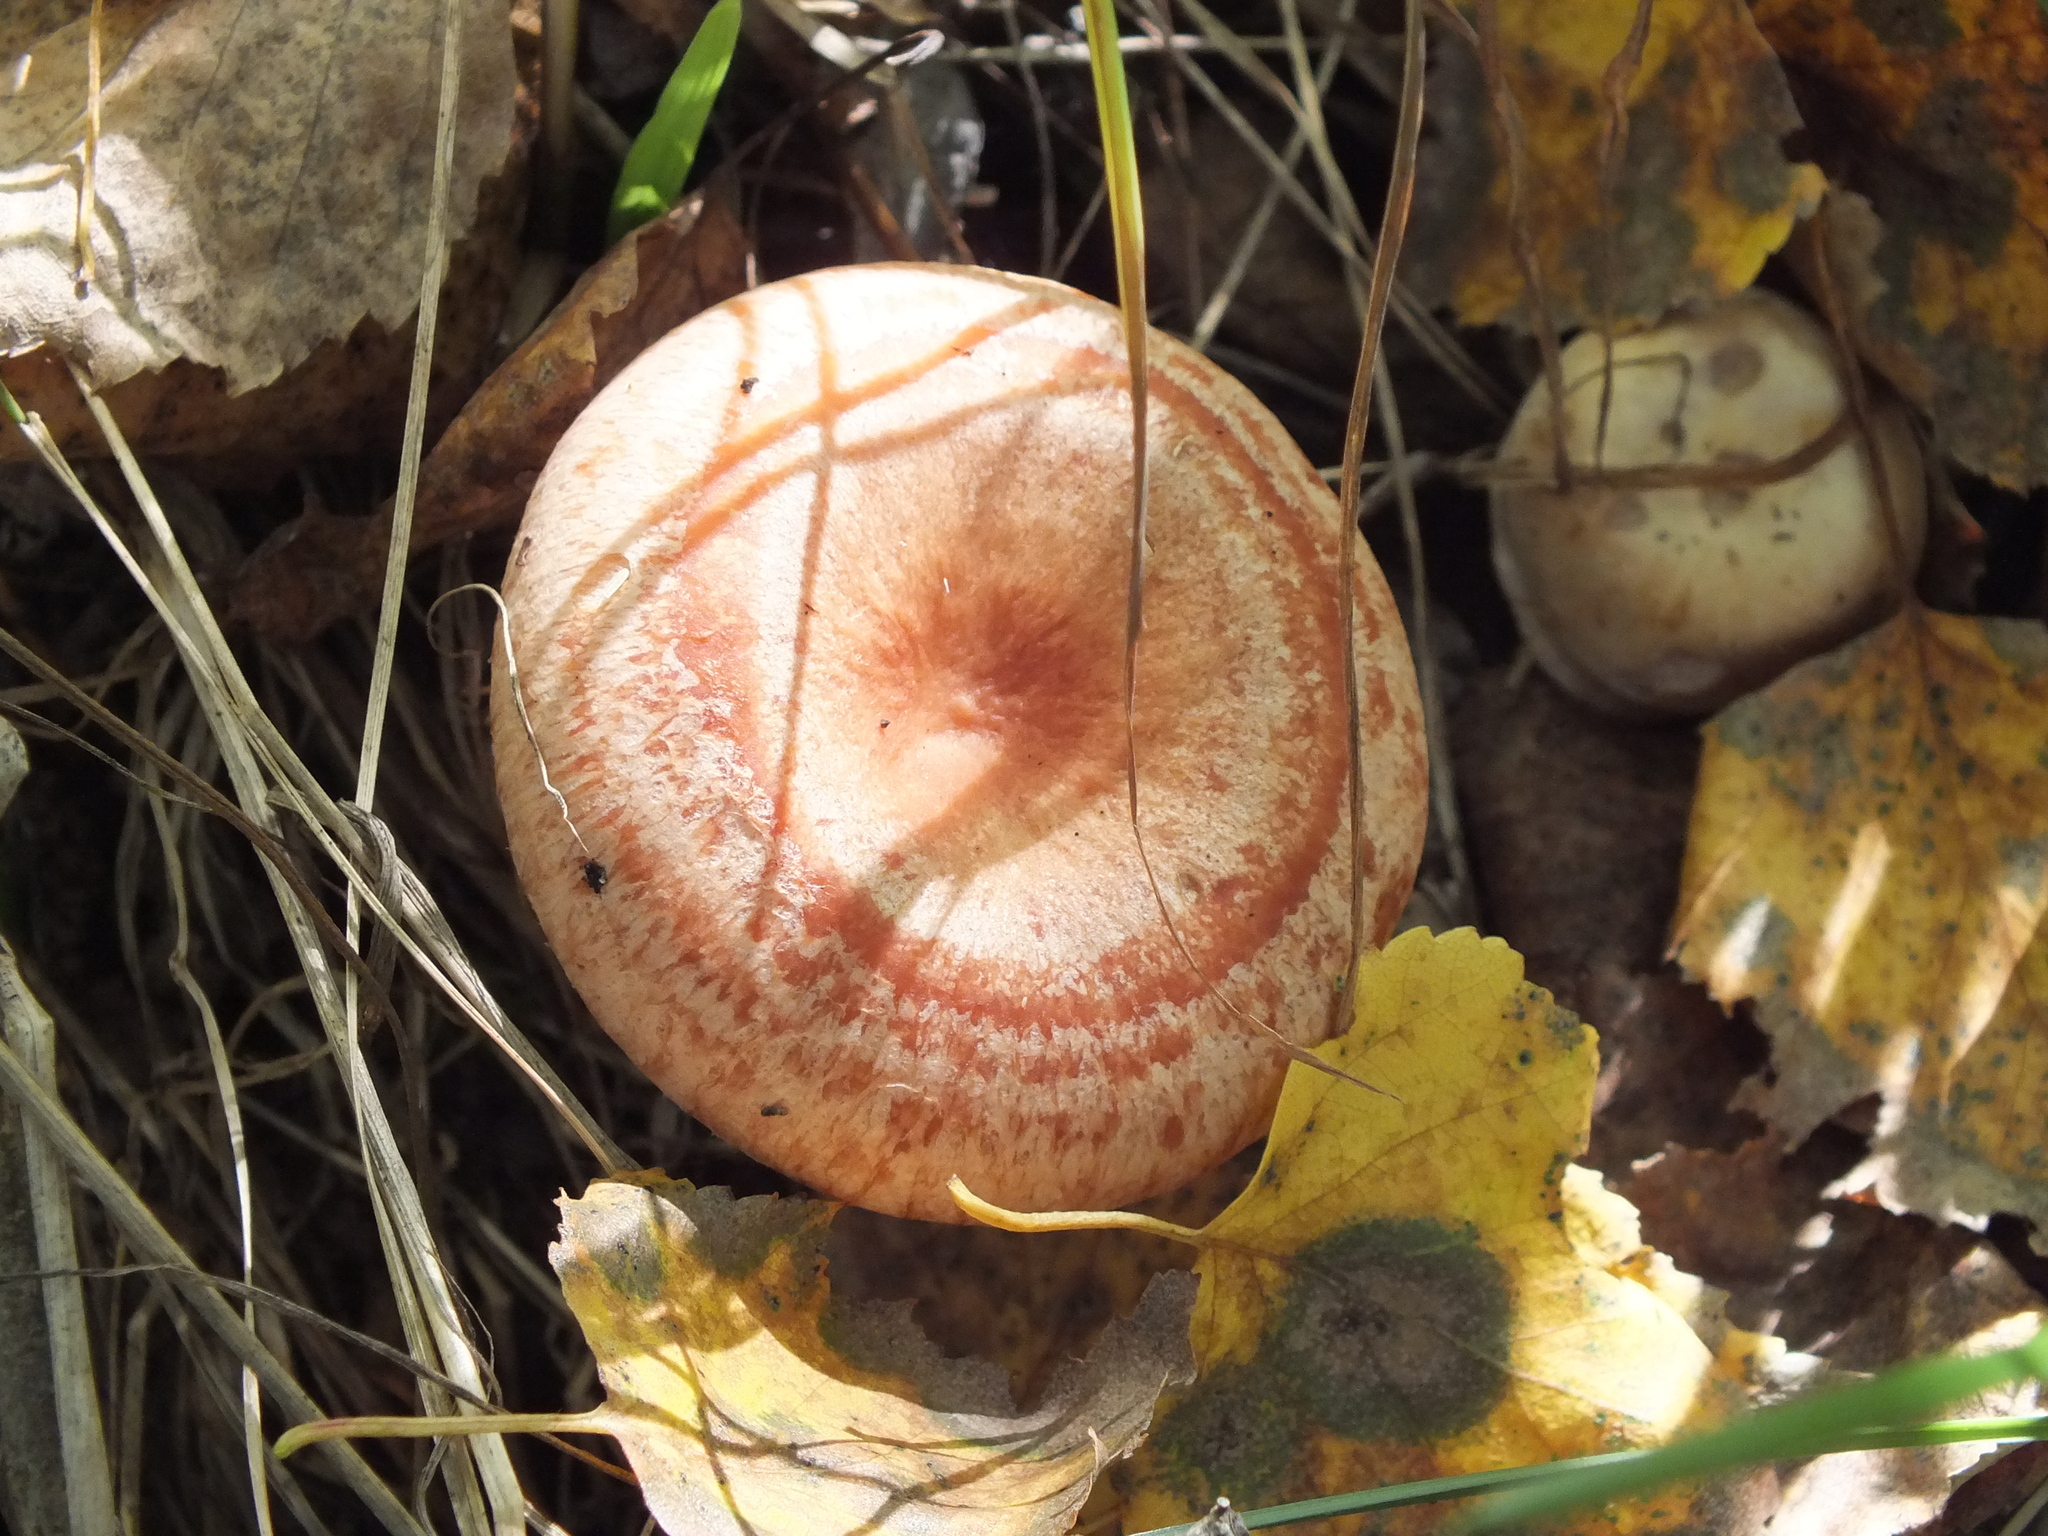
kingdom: Fungi
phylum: Basidiomycota
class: Agaricomycetes
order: Russulales
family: Russulaceae
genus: Lactarius
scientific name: Lactarius torminosus
